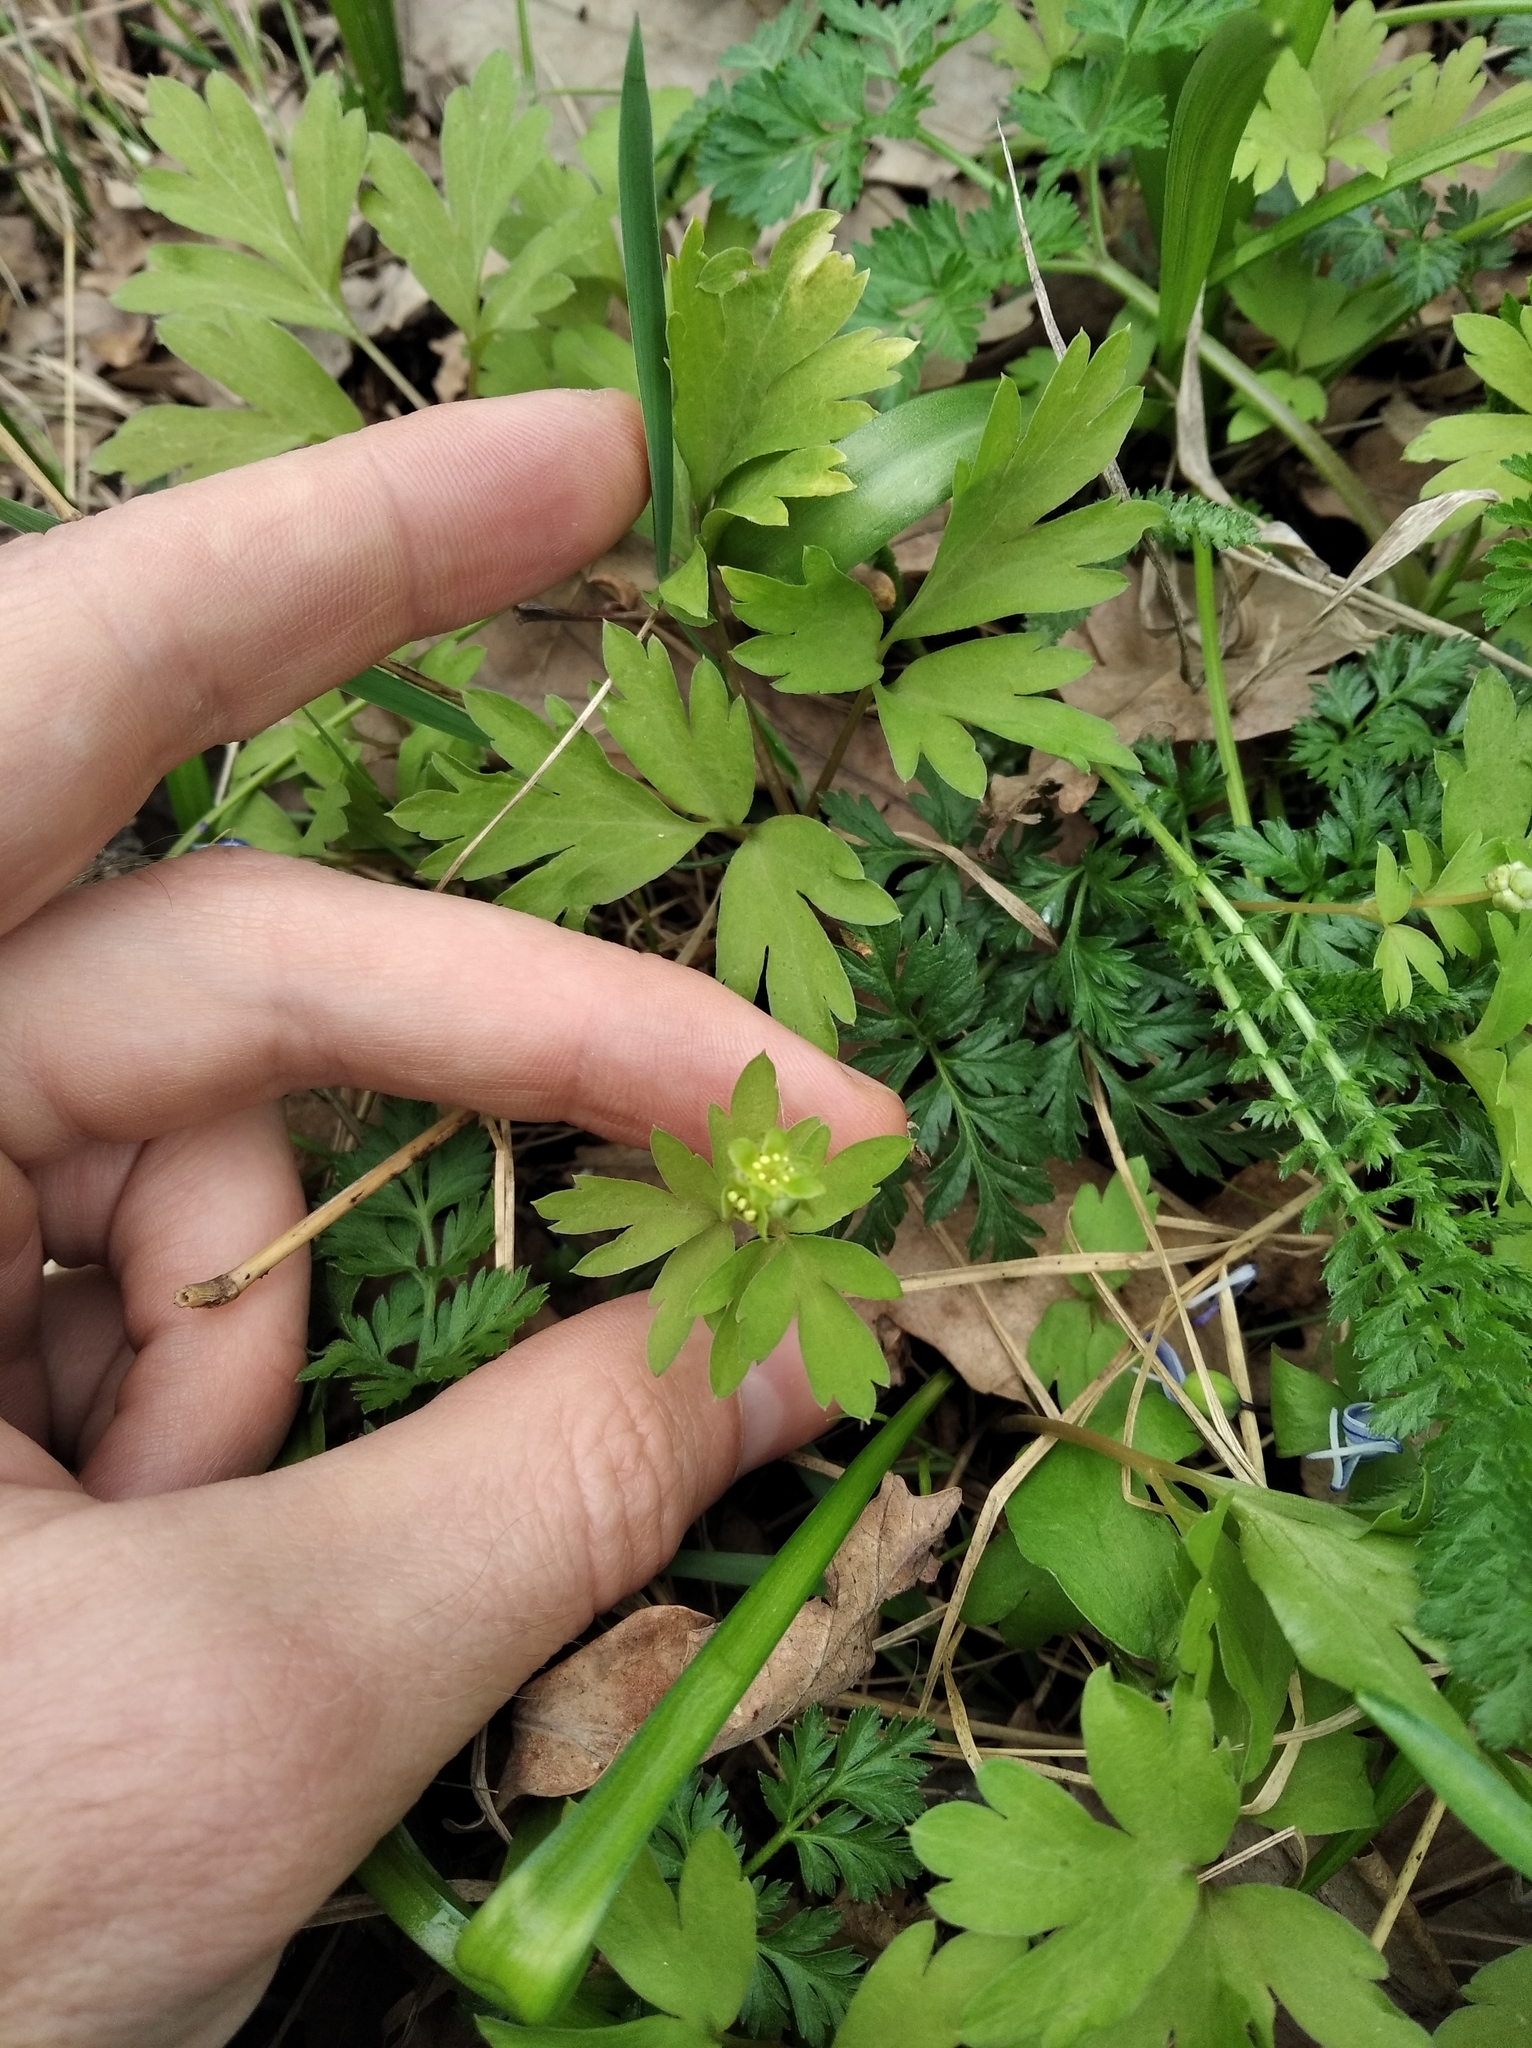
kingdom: Plantae
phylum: Tracheophyta
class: Magnoliopsida
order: Dipsacales
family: Viburnaceae
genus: Adoxa
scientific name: Adoxa moschatellina
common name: Moschatel
